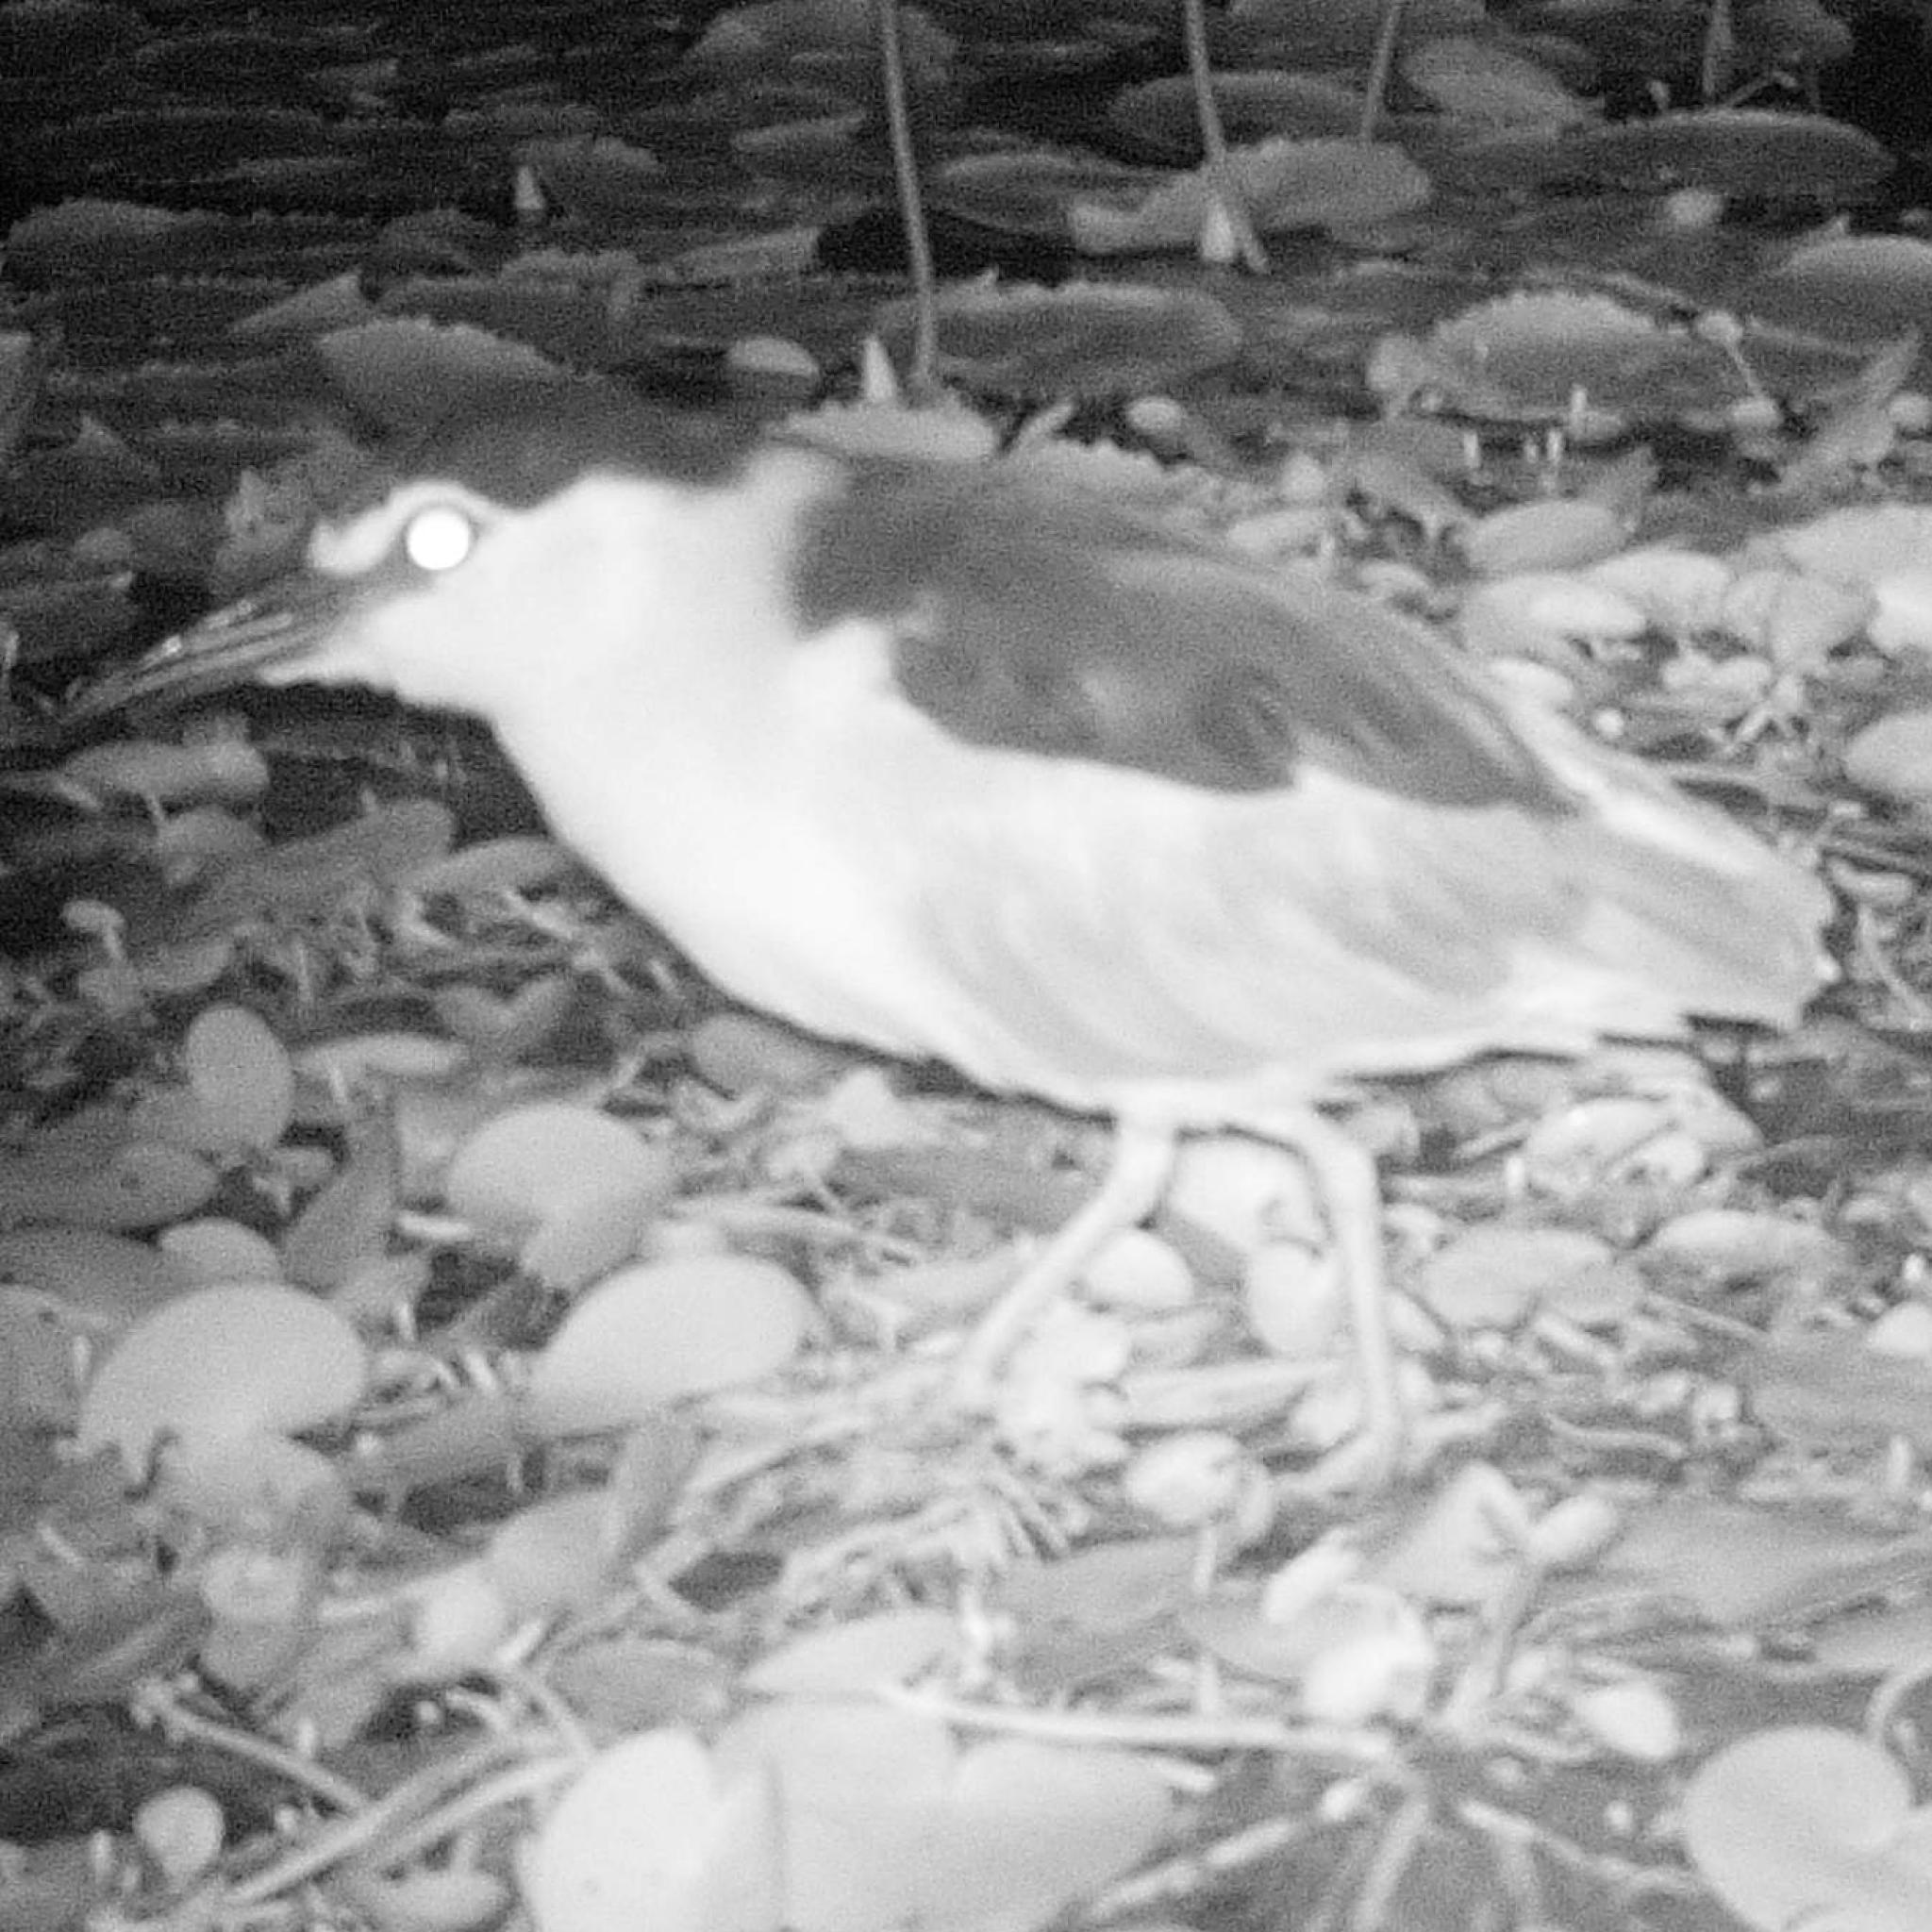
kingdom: Animalia
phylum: Chordata
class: Aves
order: Pelecaniformes
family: Ardeidae
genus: Nycticorax
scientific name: Nycticorax nycticorax
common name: Black-crowned night heron
